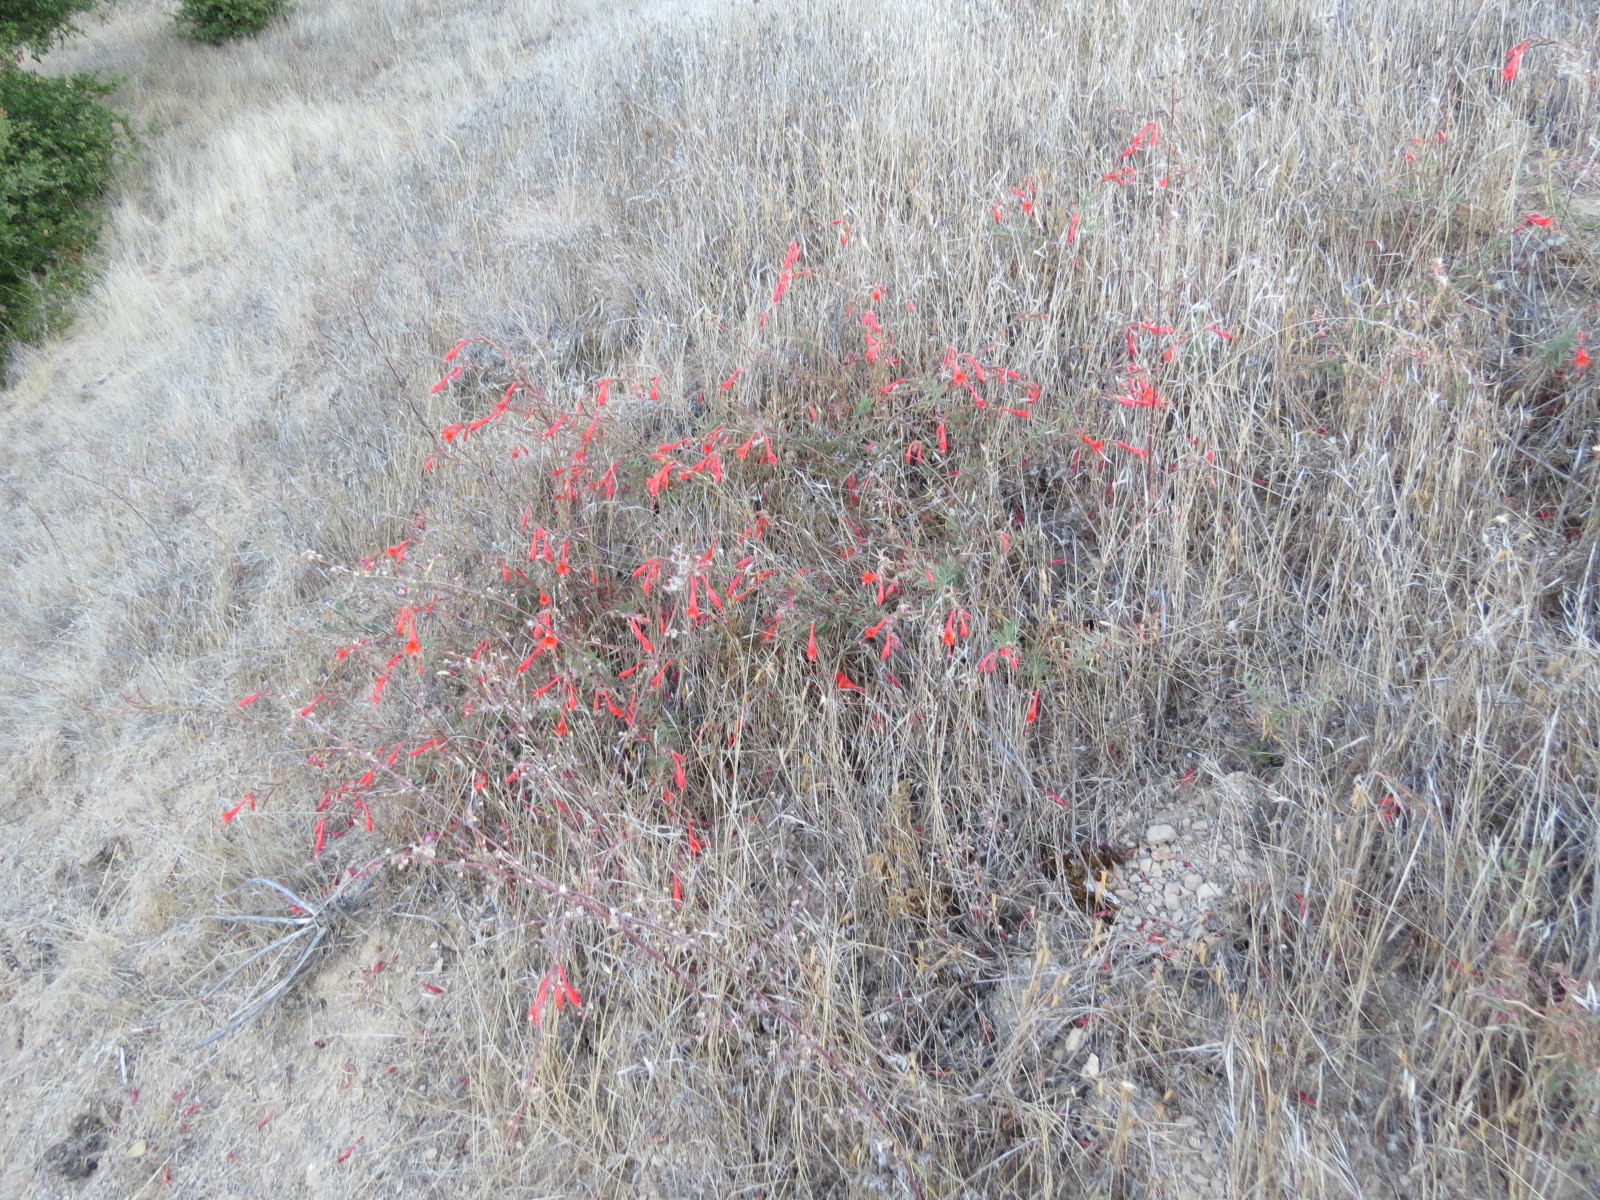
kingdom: Plantae
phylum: Tracheophyta
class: Magnoliopsida
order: Myrtales
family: Onagraceae
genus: Epilobium
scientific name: Epilobium canum
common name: California-fuchsia
